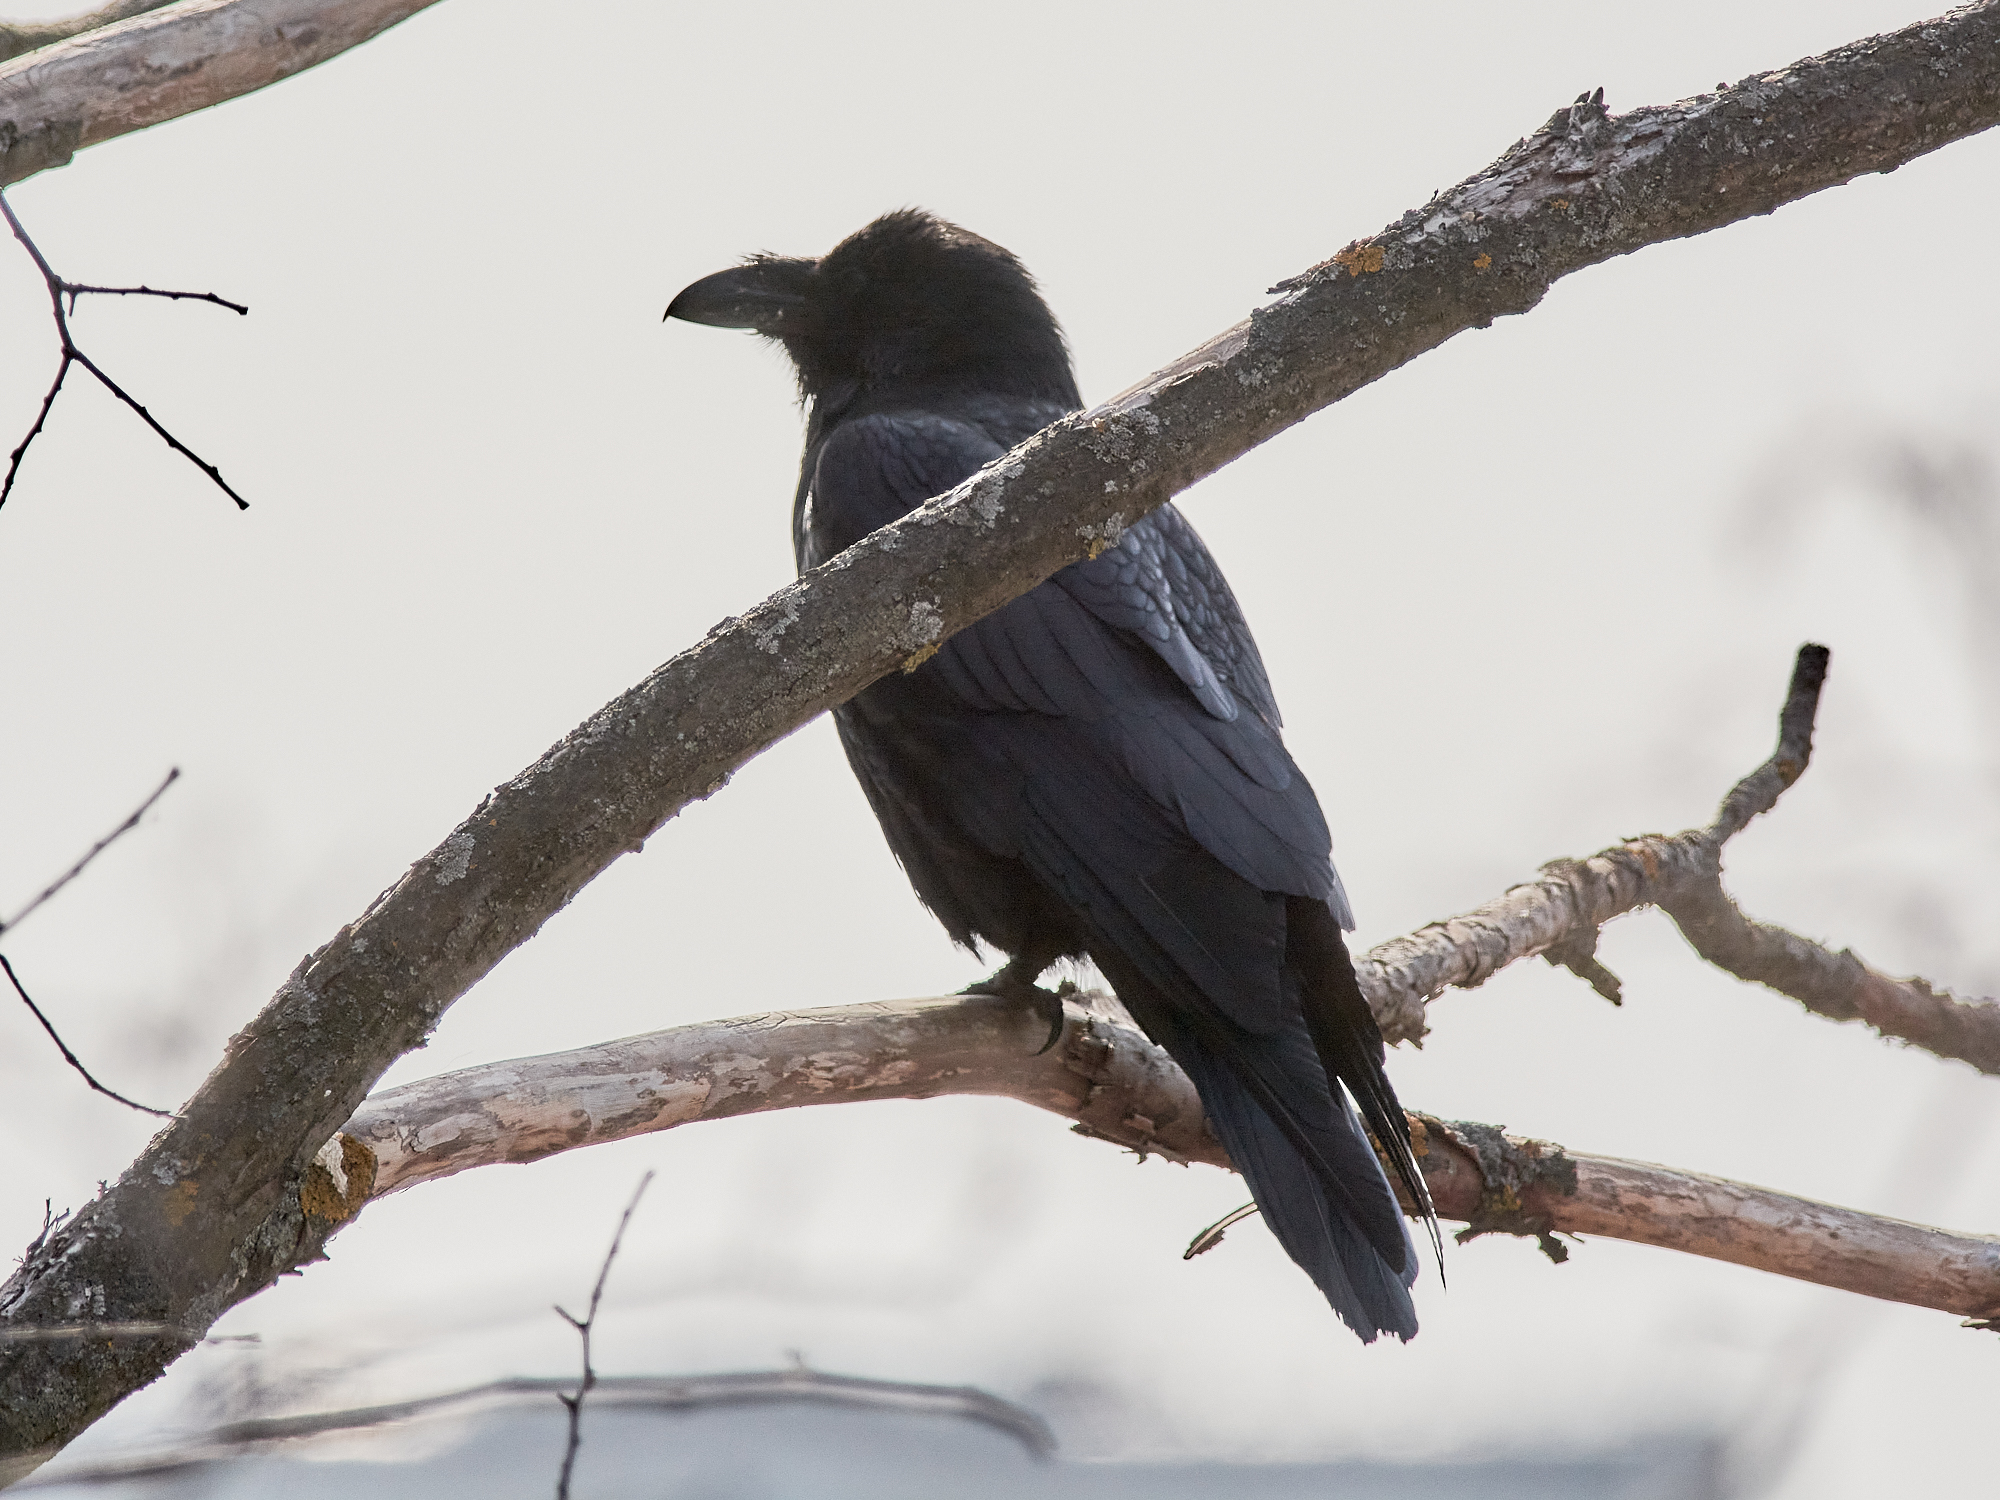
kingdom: Animalia
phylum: Chordata
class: Aves
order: Passeriformes
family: Corvidae
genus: Corvus
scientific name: Corvus corax
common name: Common raven
